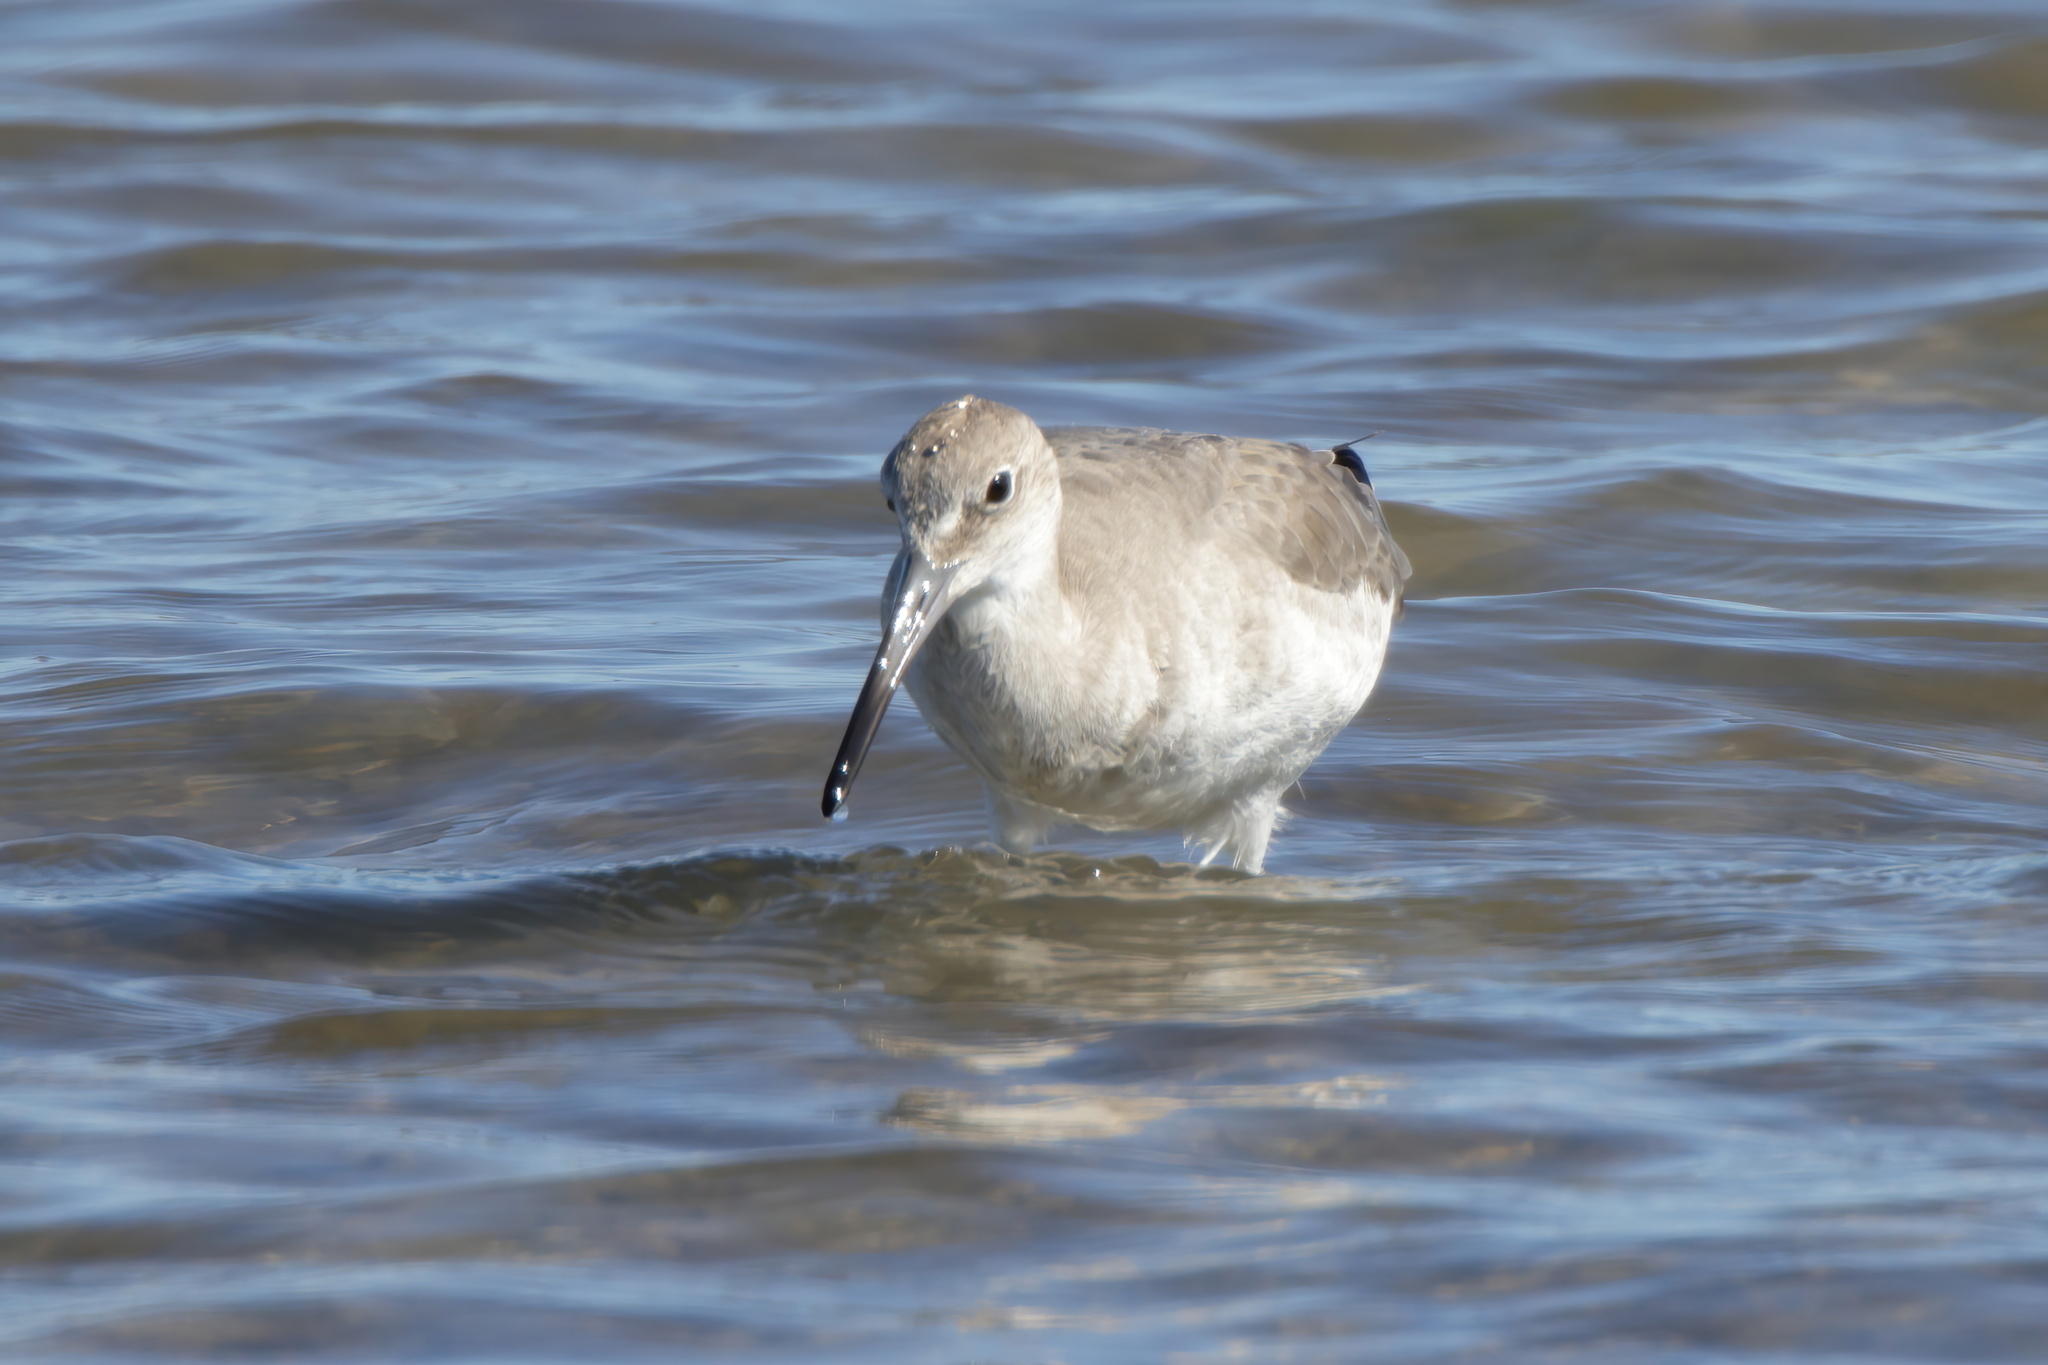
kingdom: Animalia
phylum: Chordata
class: Aves
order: Charadriiformes
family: Scolopacidae
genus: Tringa
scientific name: Tringa semipalmata
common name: Willet
